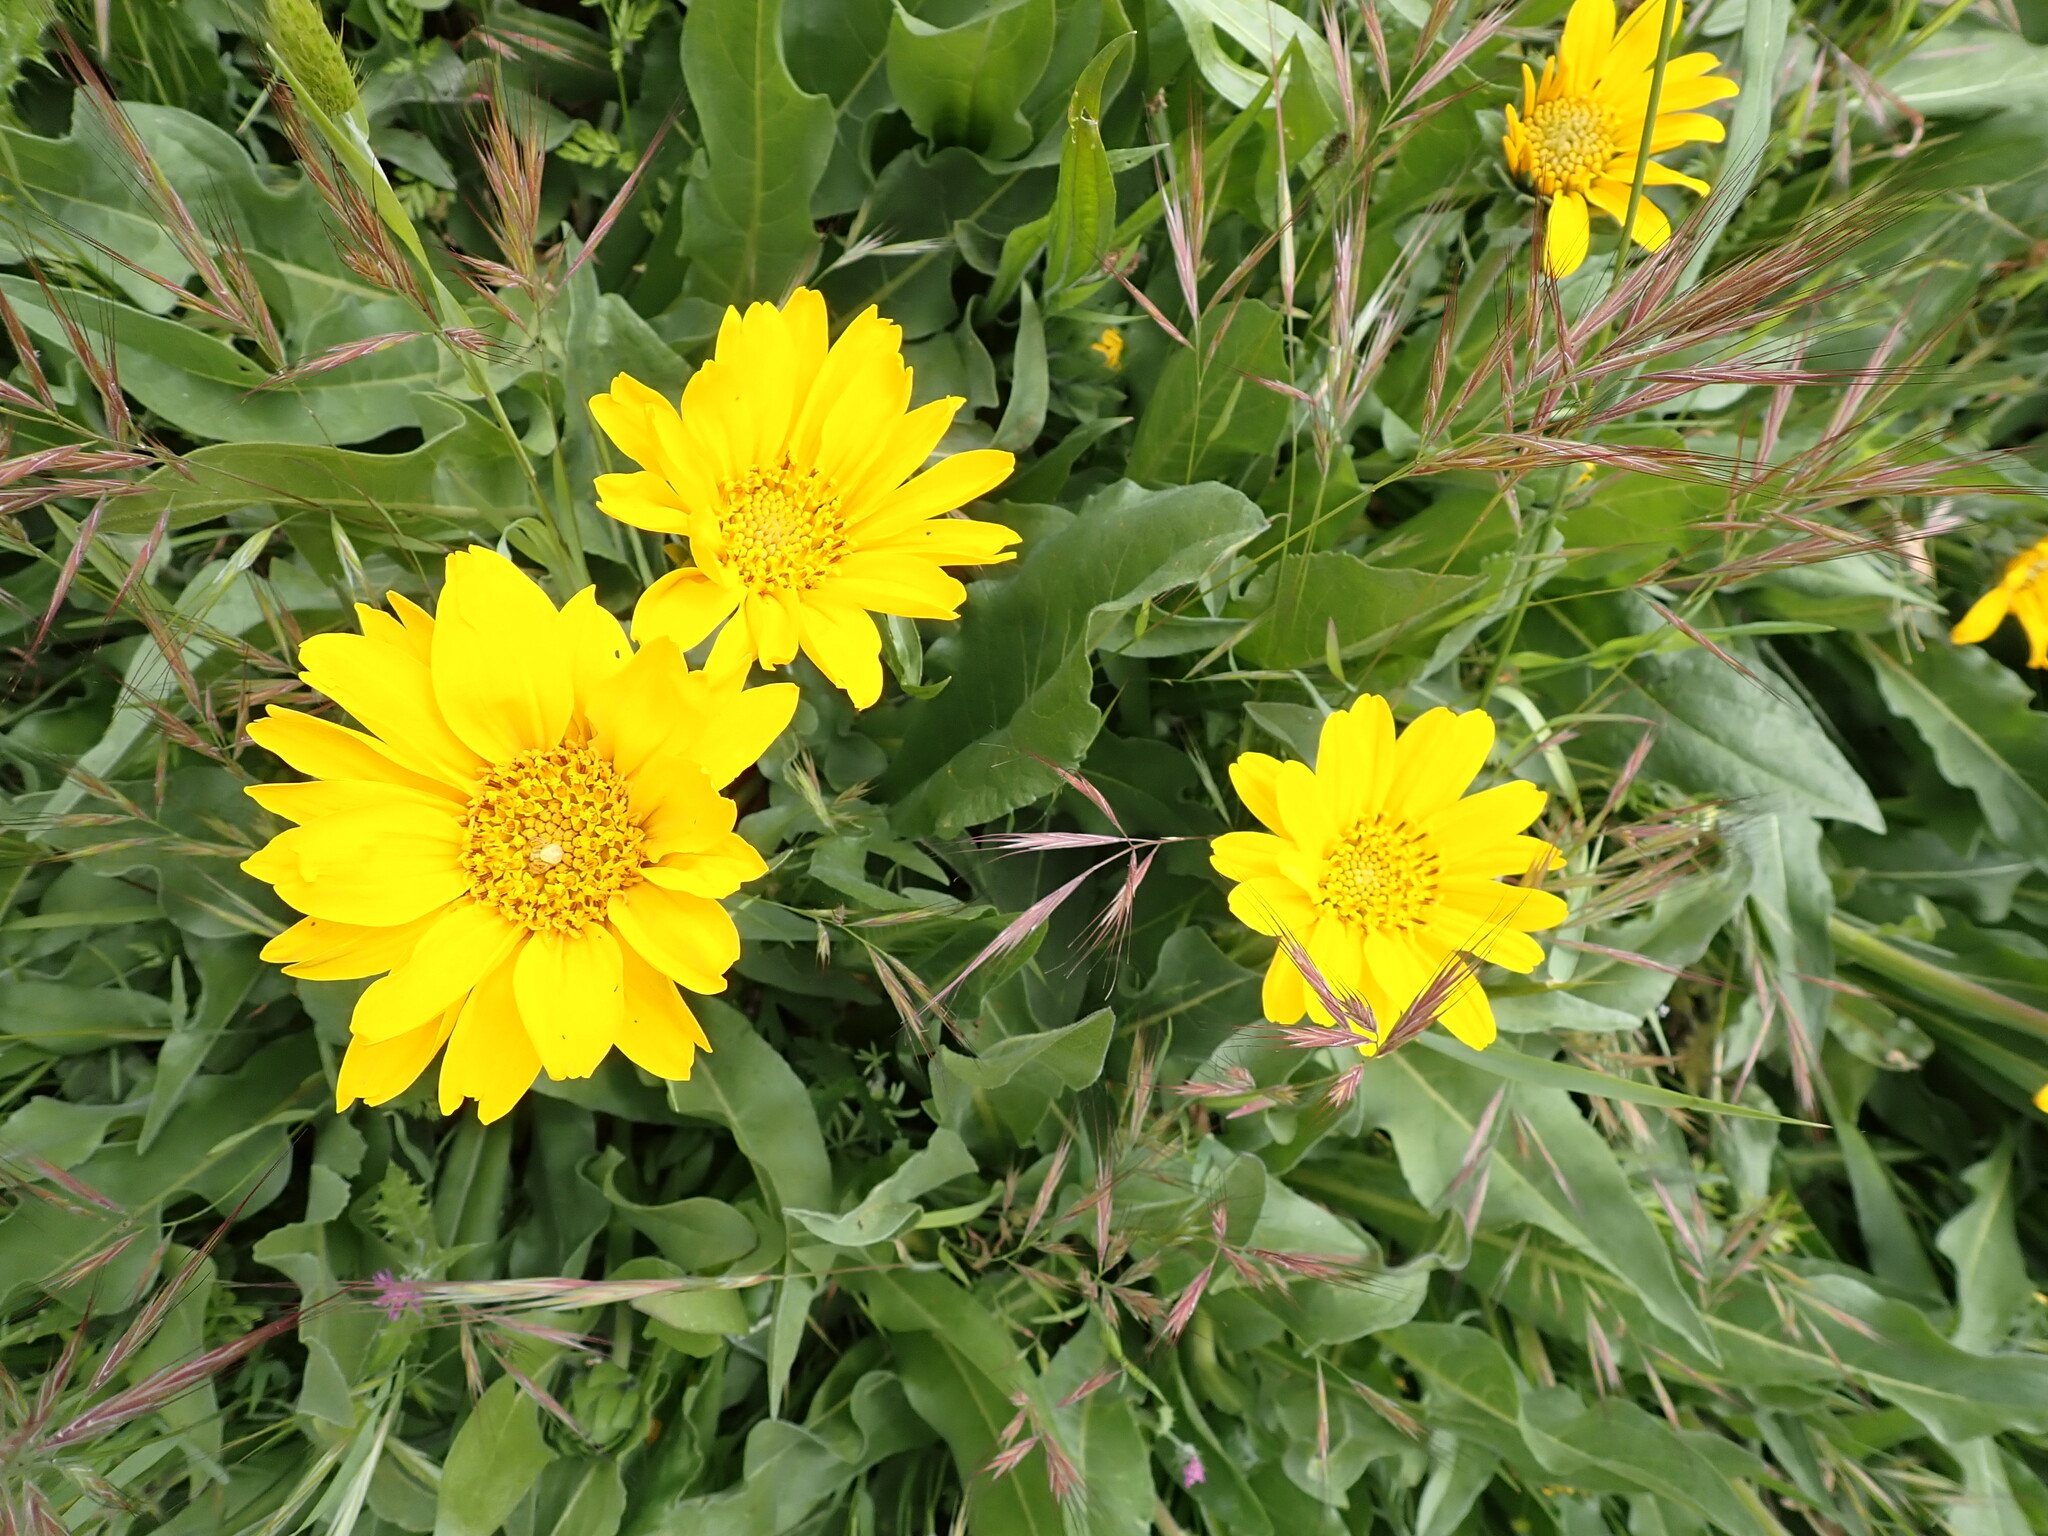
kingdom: Plantae
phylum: Tracheophyta
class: Magnoliopsida
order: Asterales
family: Asteraceae
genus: Wyethia
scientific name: Wyethia angustifolia
